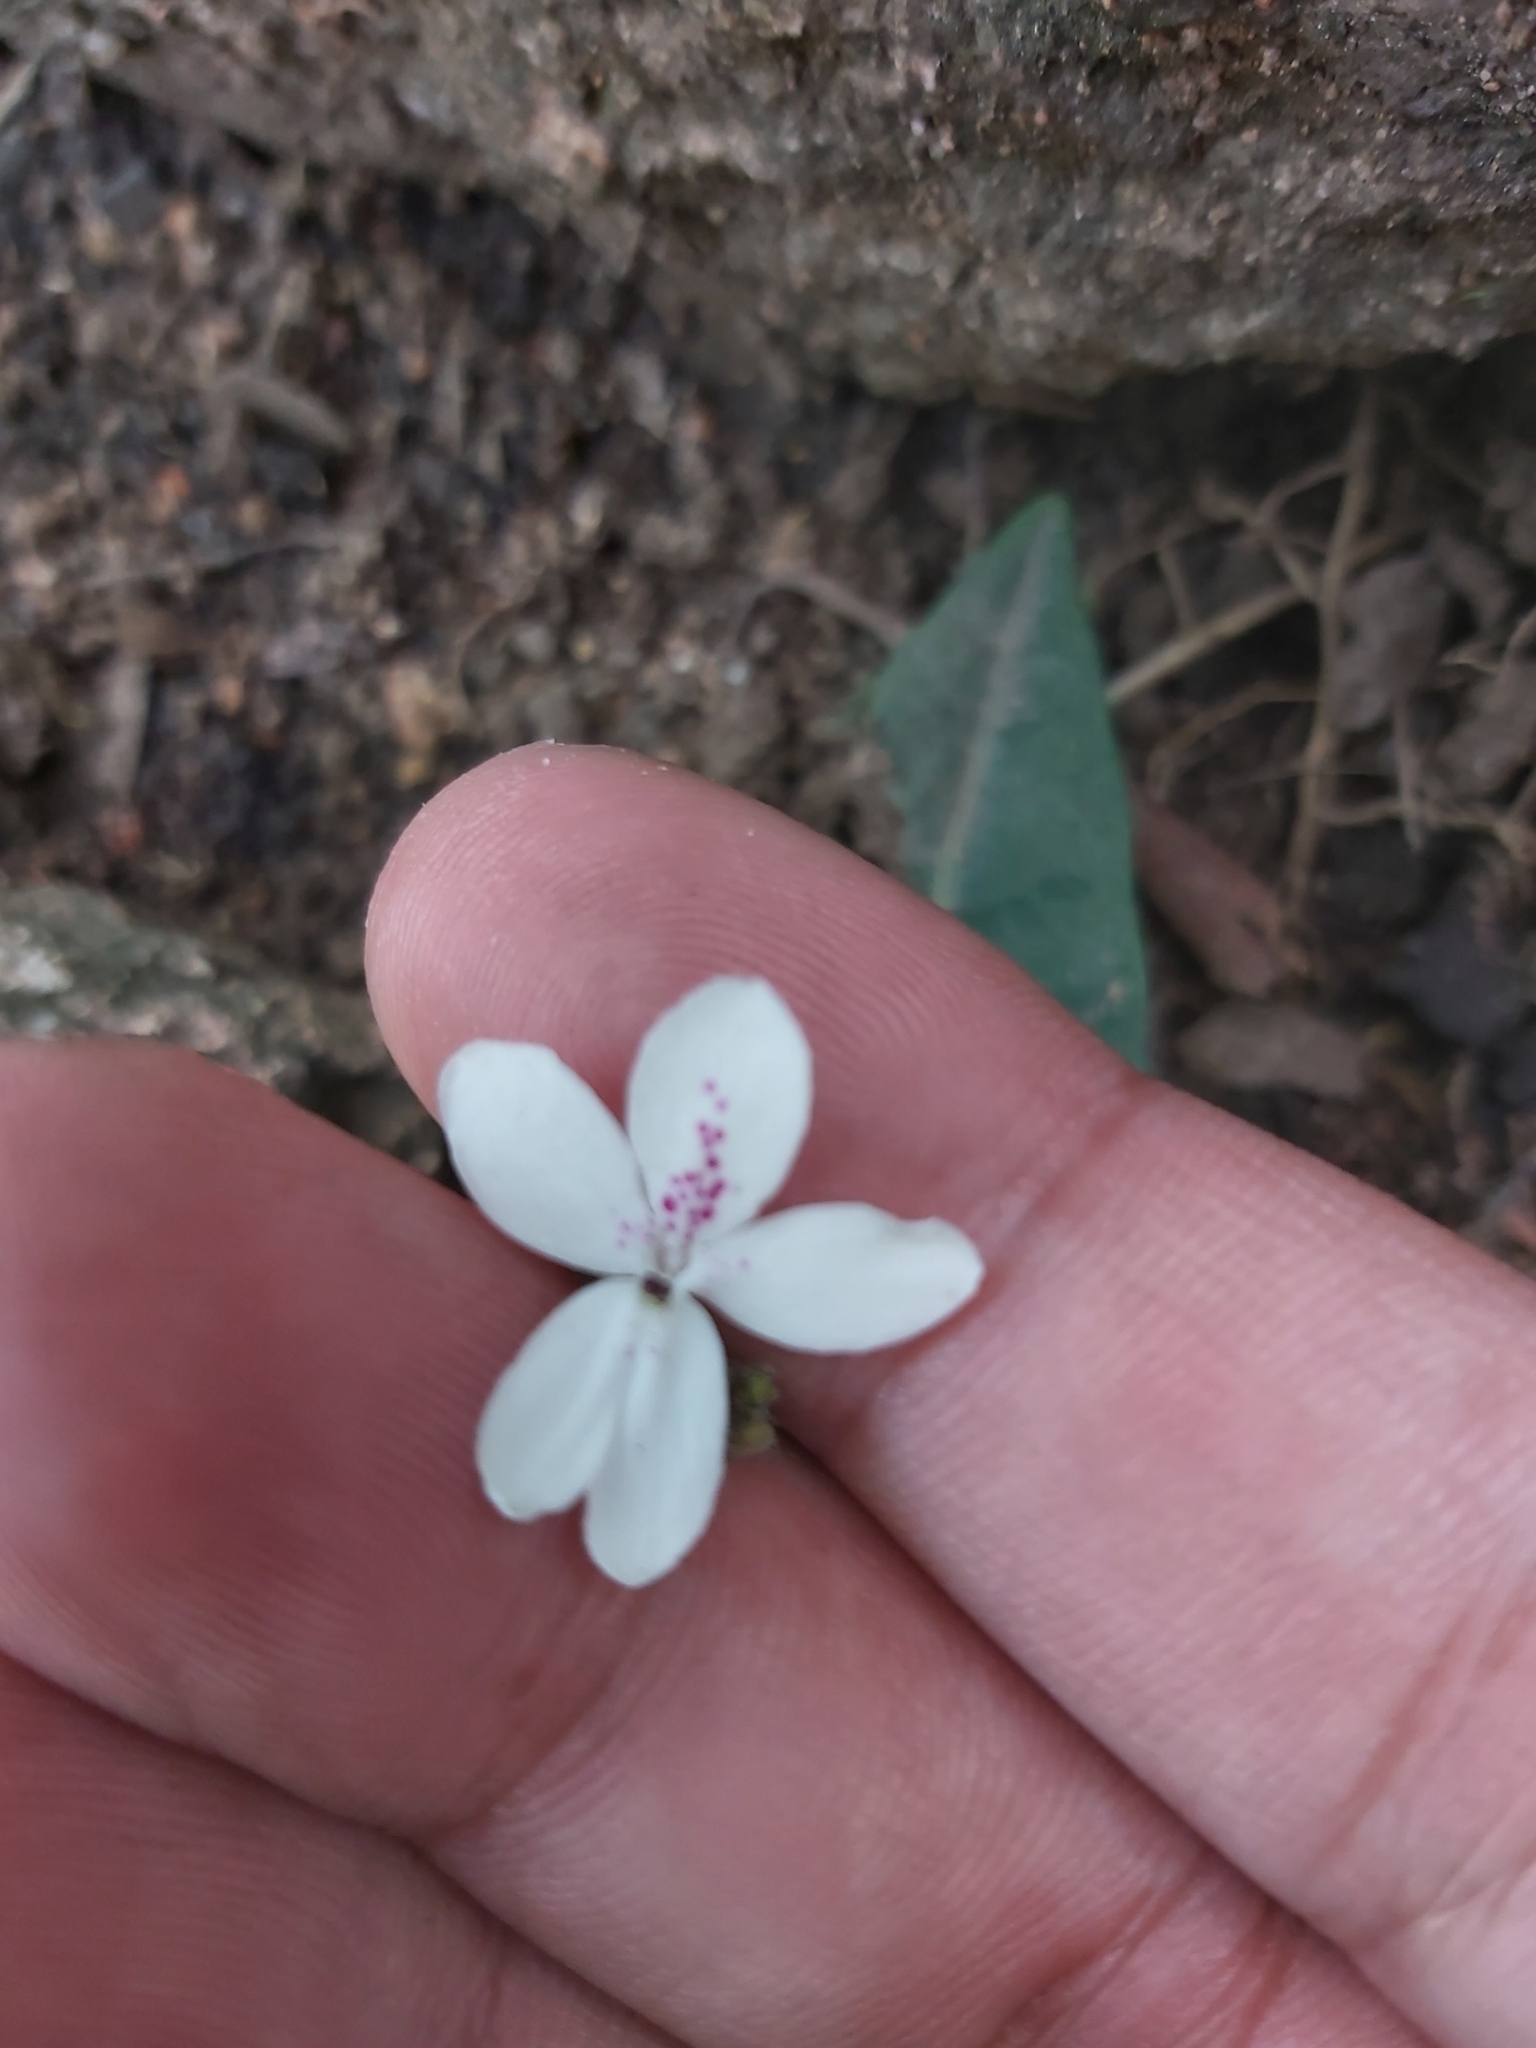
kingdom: Plantae
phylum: Tracheophyta
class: Magnoliopsida
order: Lamiales
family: Acanthaceae
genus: Pseuderanthemum
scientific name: Pseuderanthemum variabile
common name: Night and afternoon
